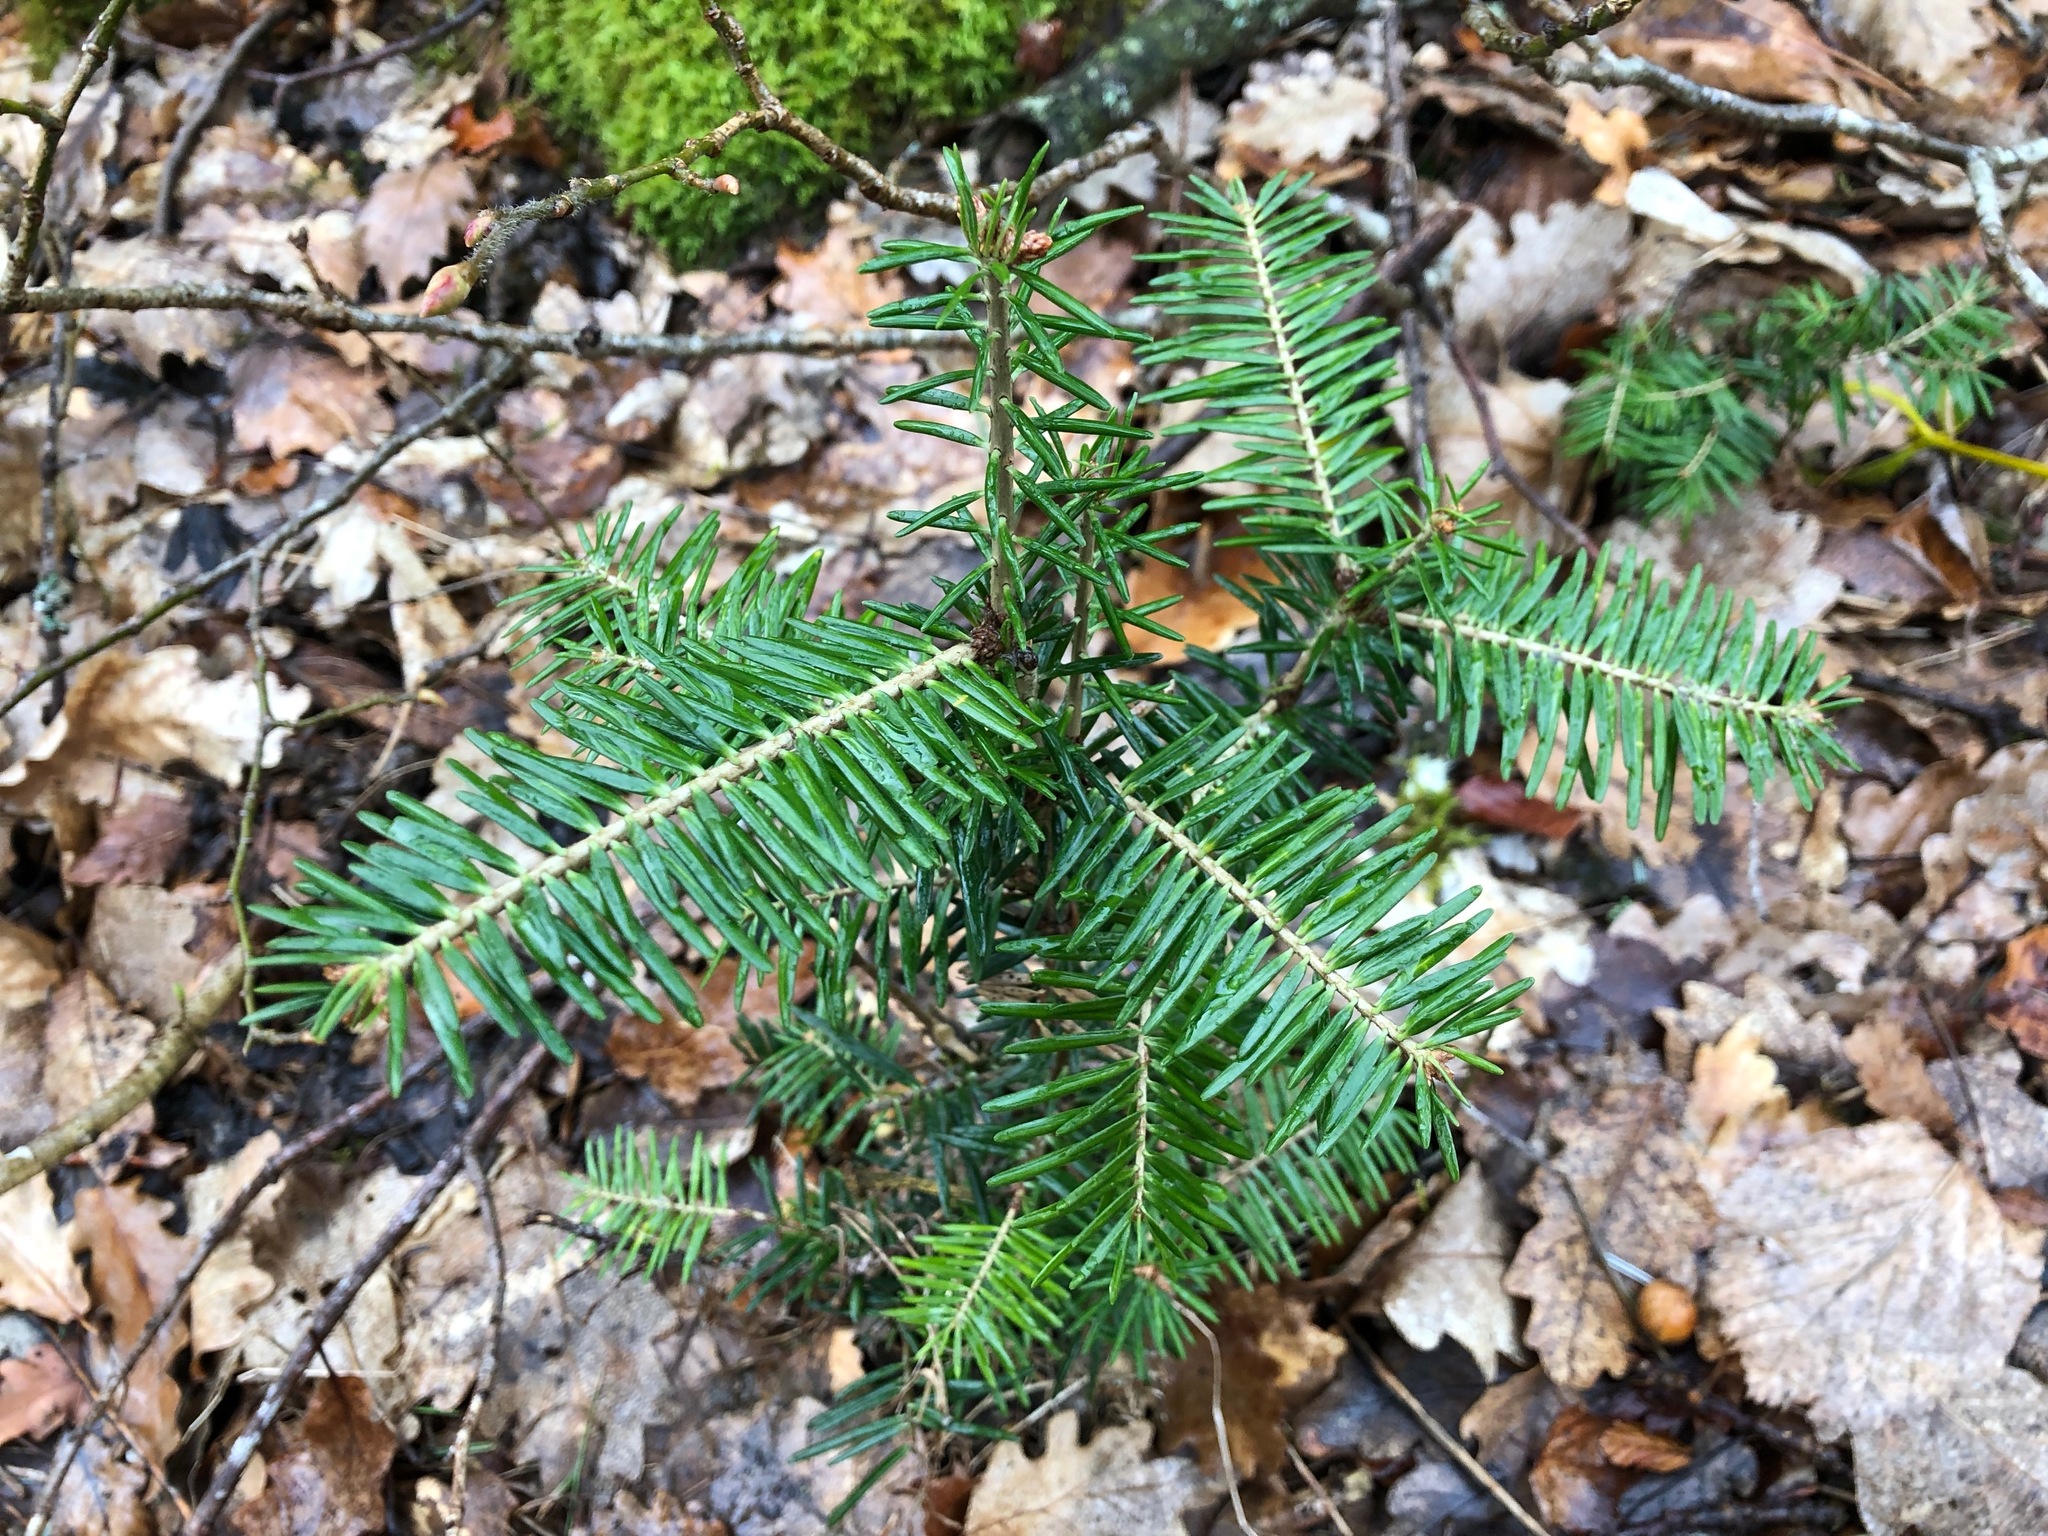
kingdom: Plantae
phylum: Tracheophyta
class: Pinopsida
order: Pinales
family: Pinaceae
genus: Abies
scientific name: Abies alba
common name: Silver fir
